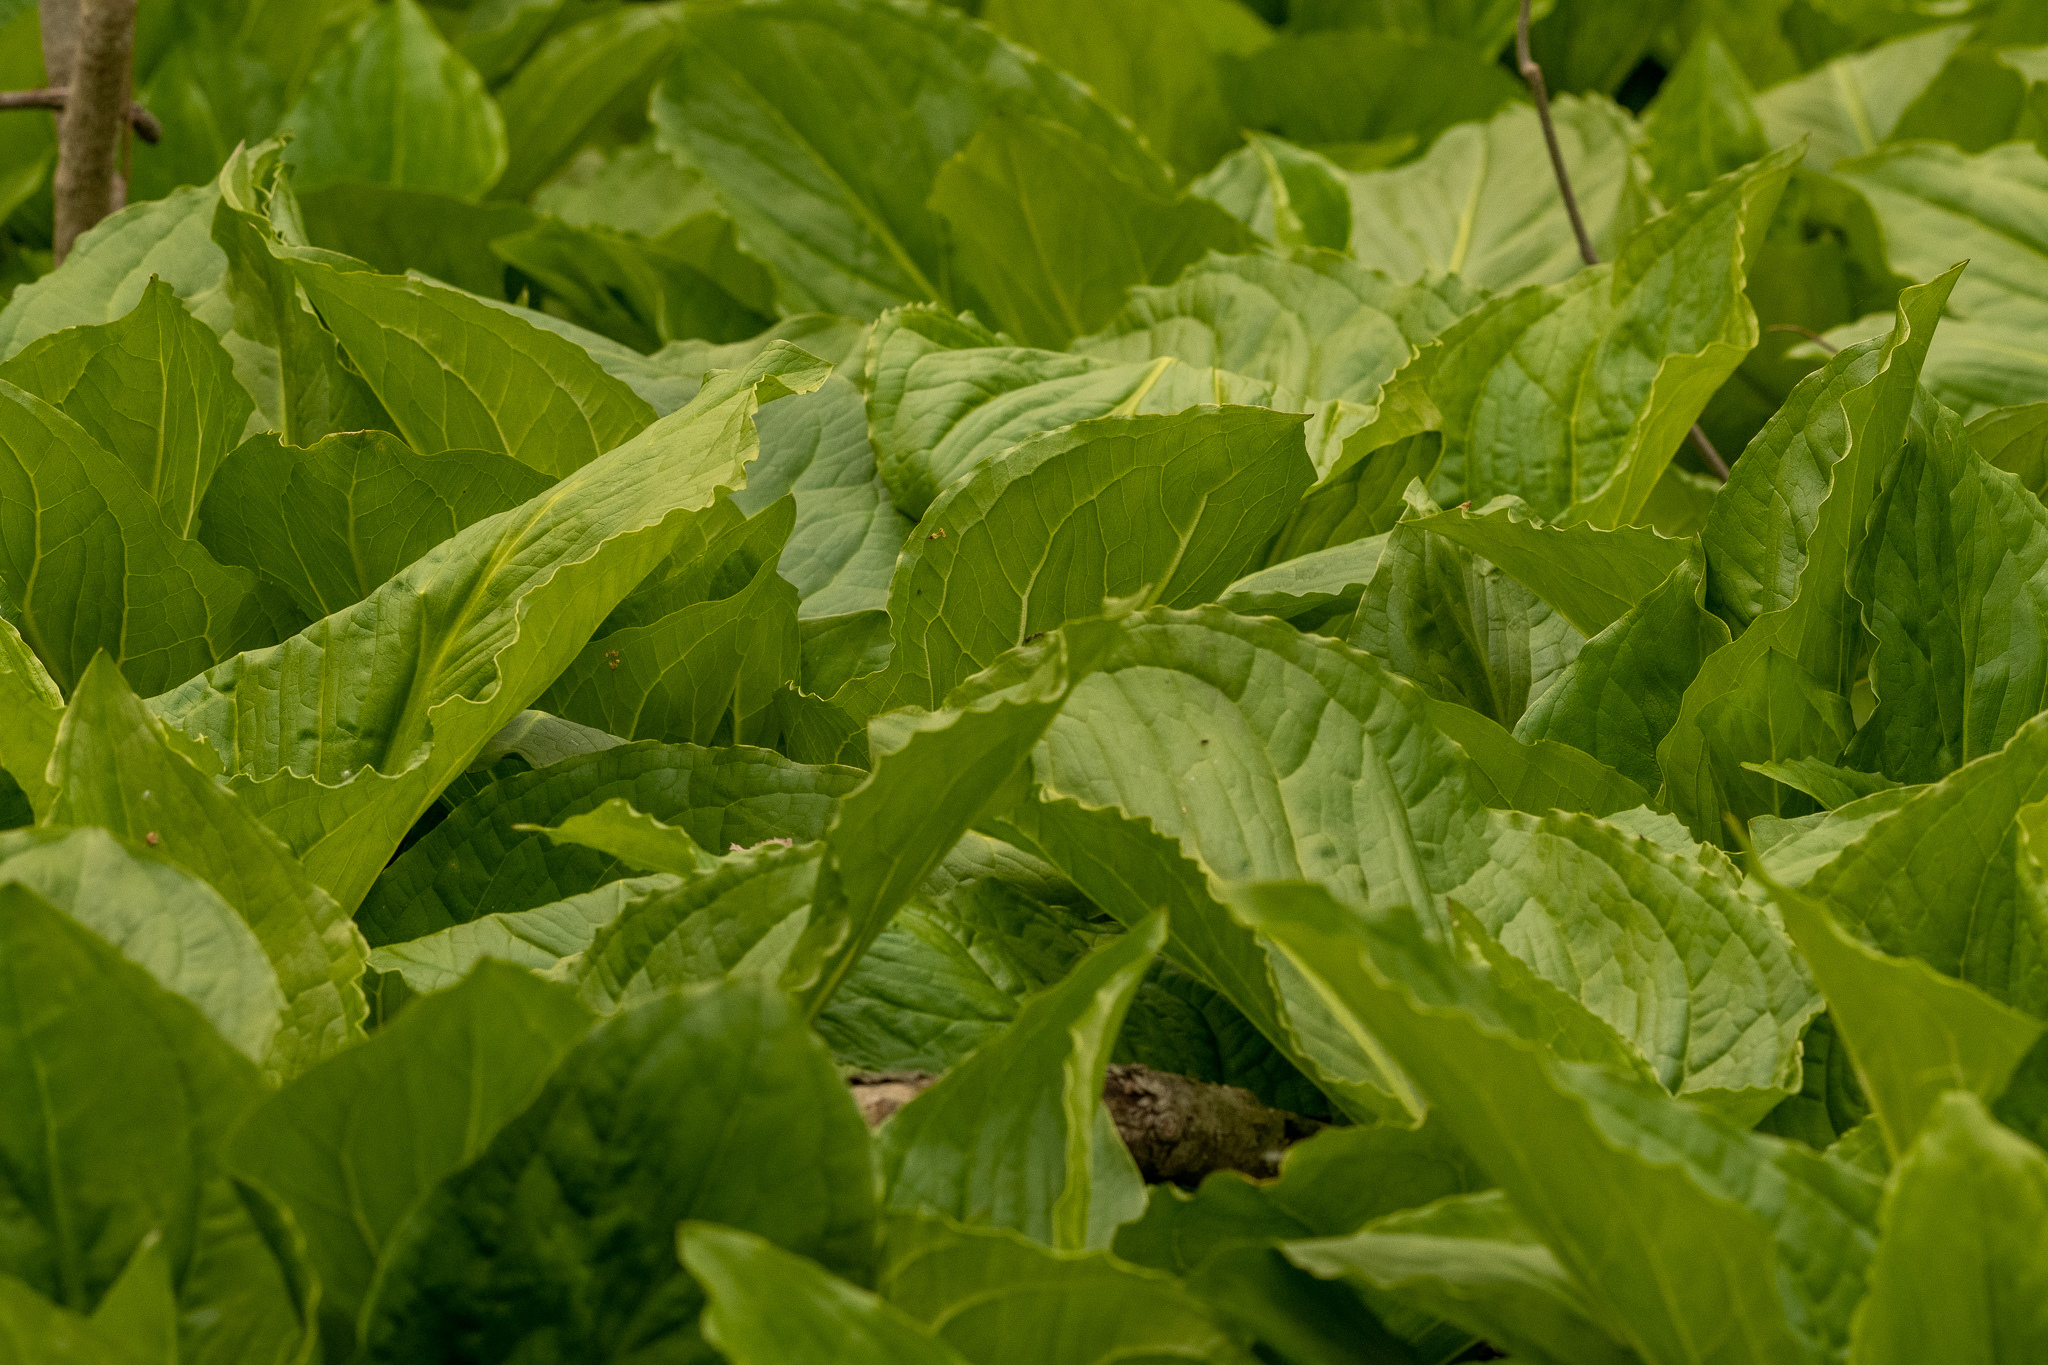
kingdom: Plantae
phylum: Tracheophyta
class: Liliopsida
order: Alismatales
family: Araceae
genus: Symplocarpus
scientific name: Symplocarpus foetidus
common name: Eastern skunk cabbage
